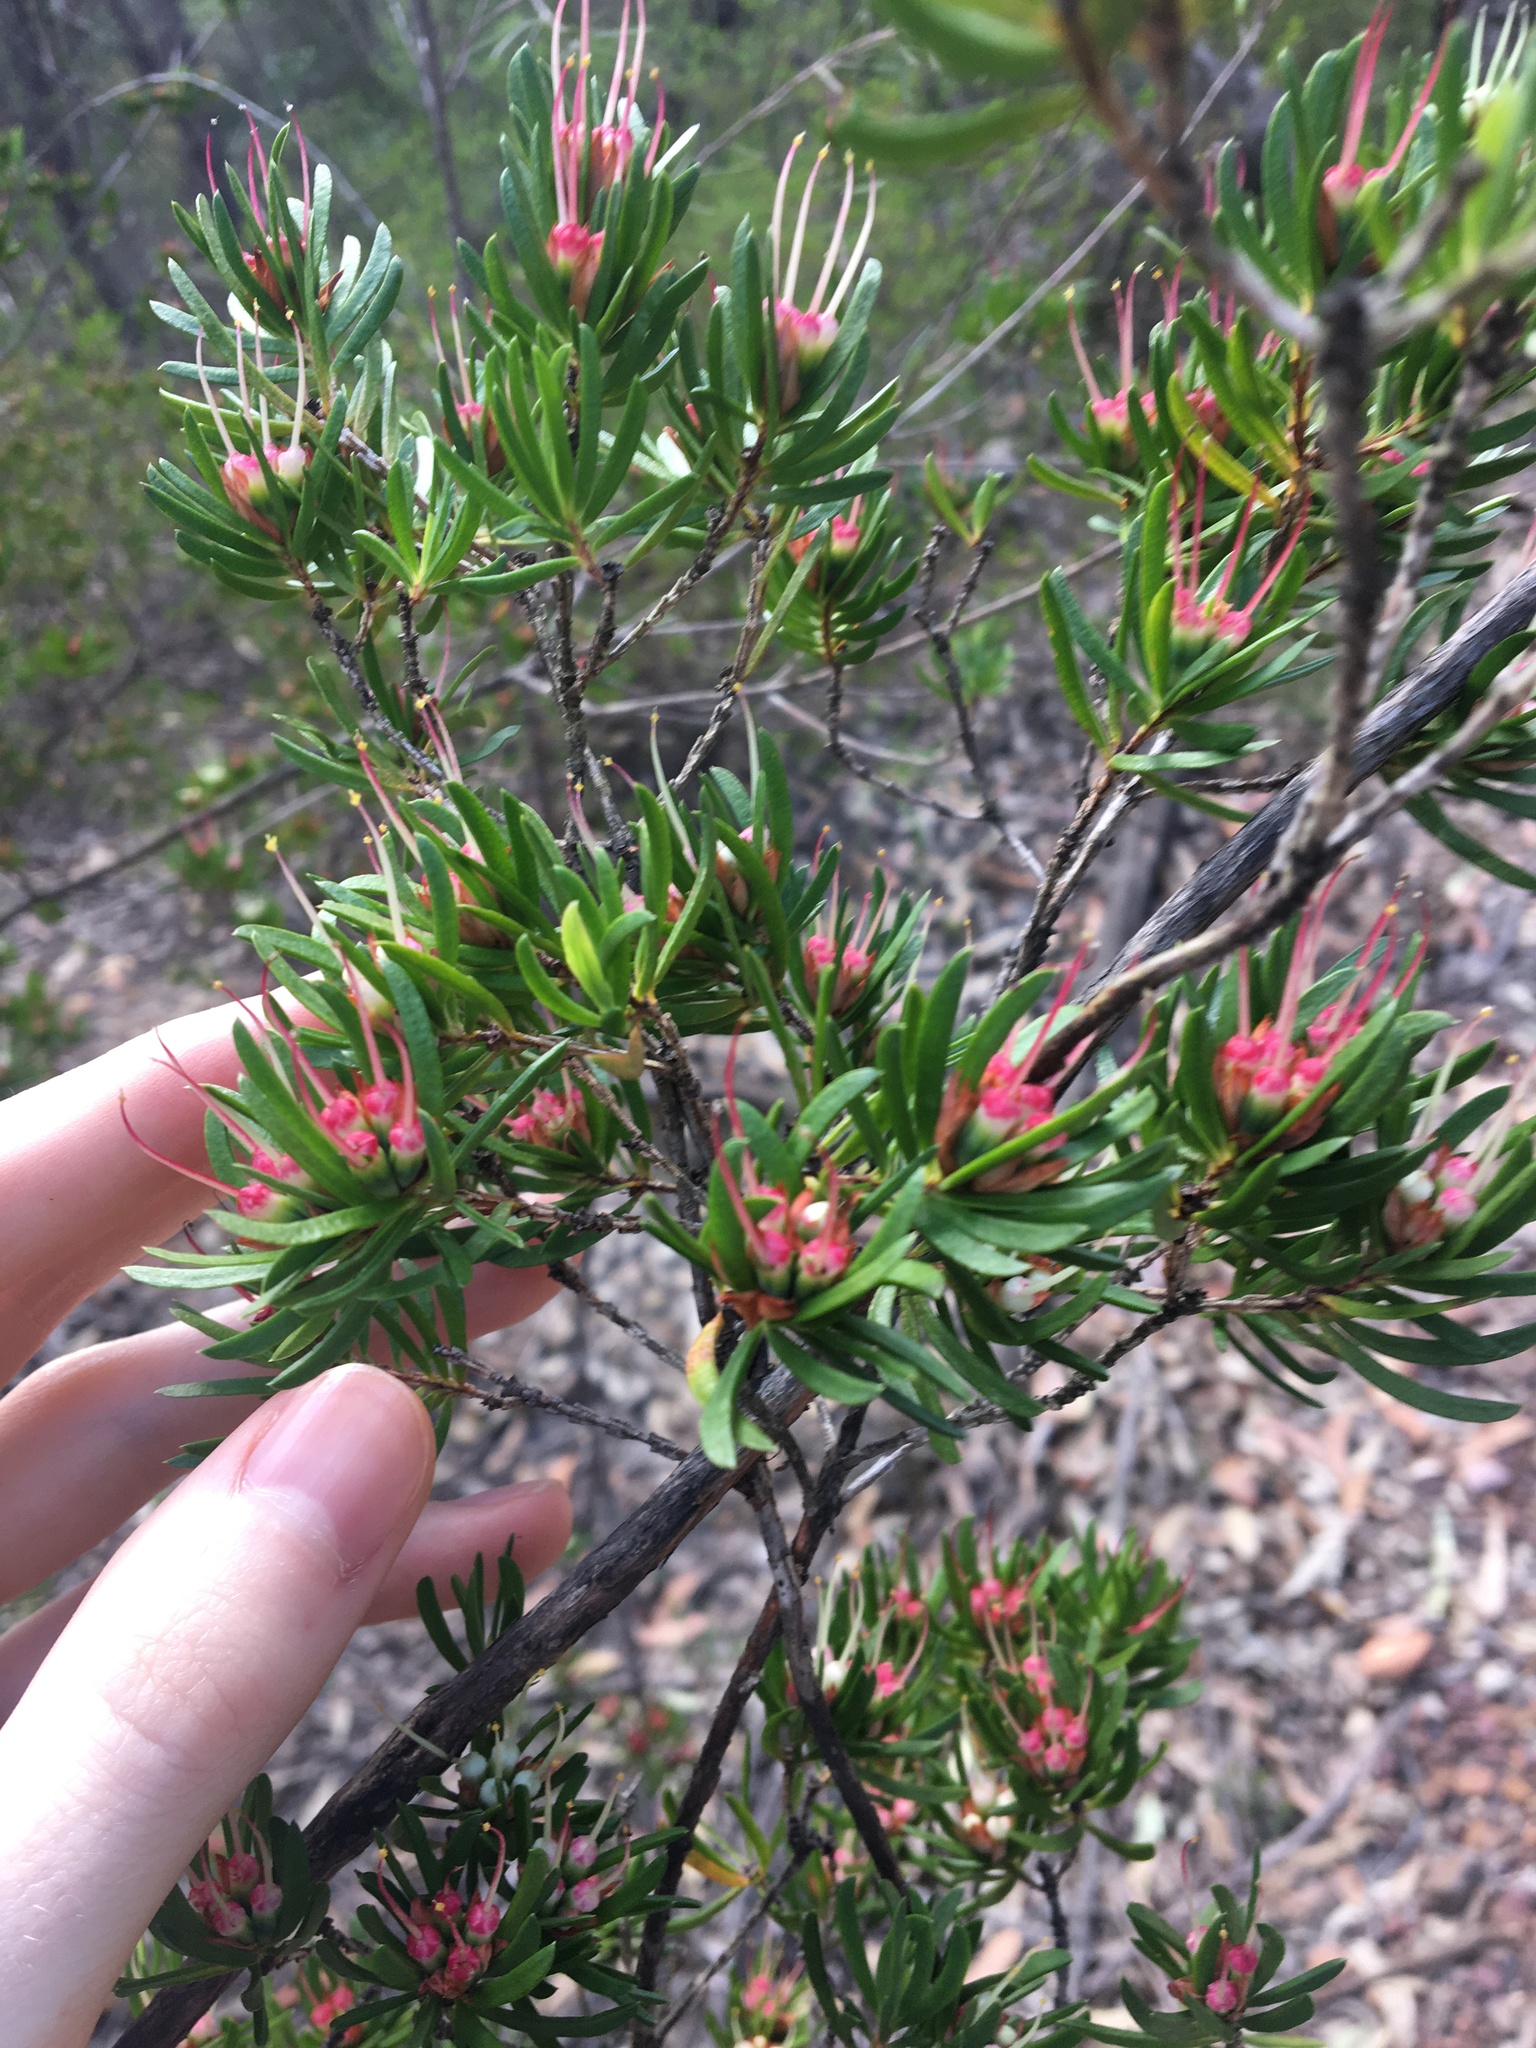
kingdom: Plantae
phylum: Tracheophyta
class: Magnoliopsida
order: Myrtales
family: Myrtaceae
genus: Darwinia
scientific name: Darwinia procera
